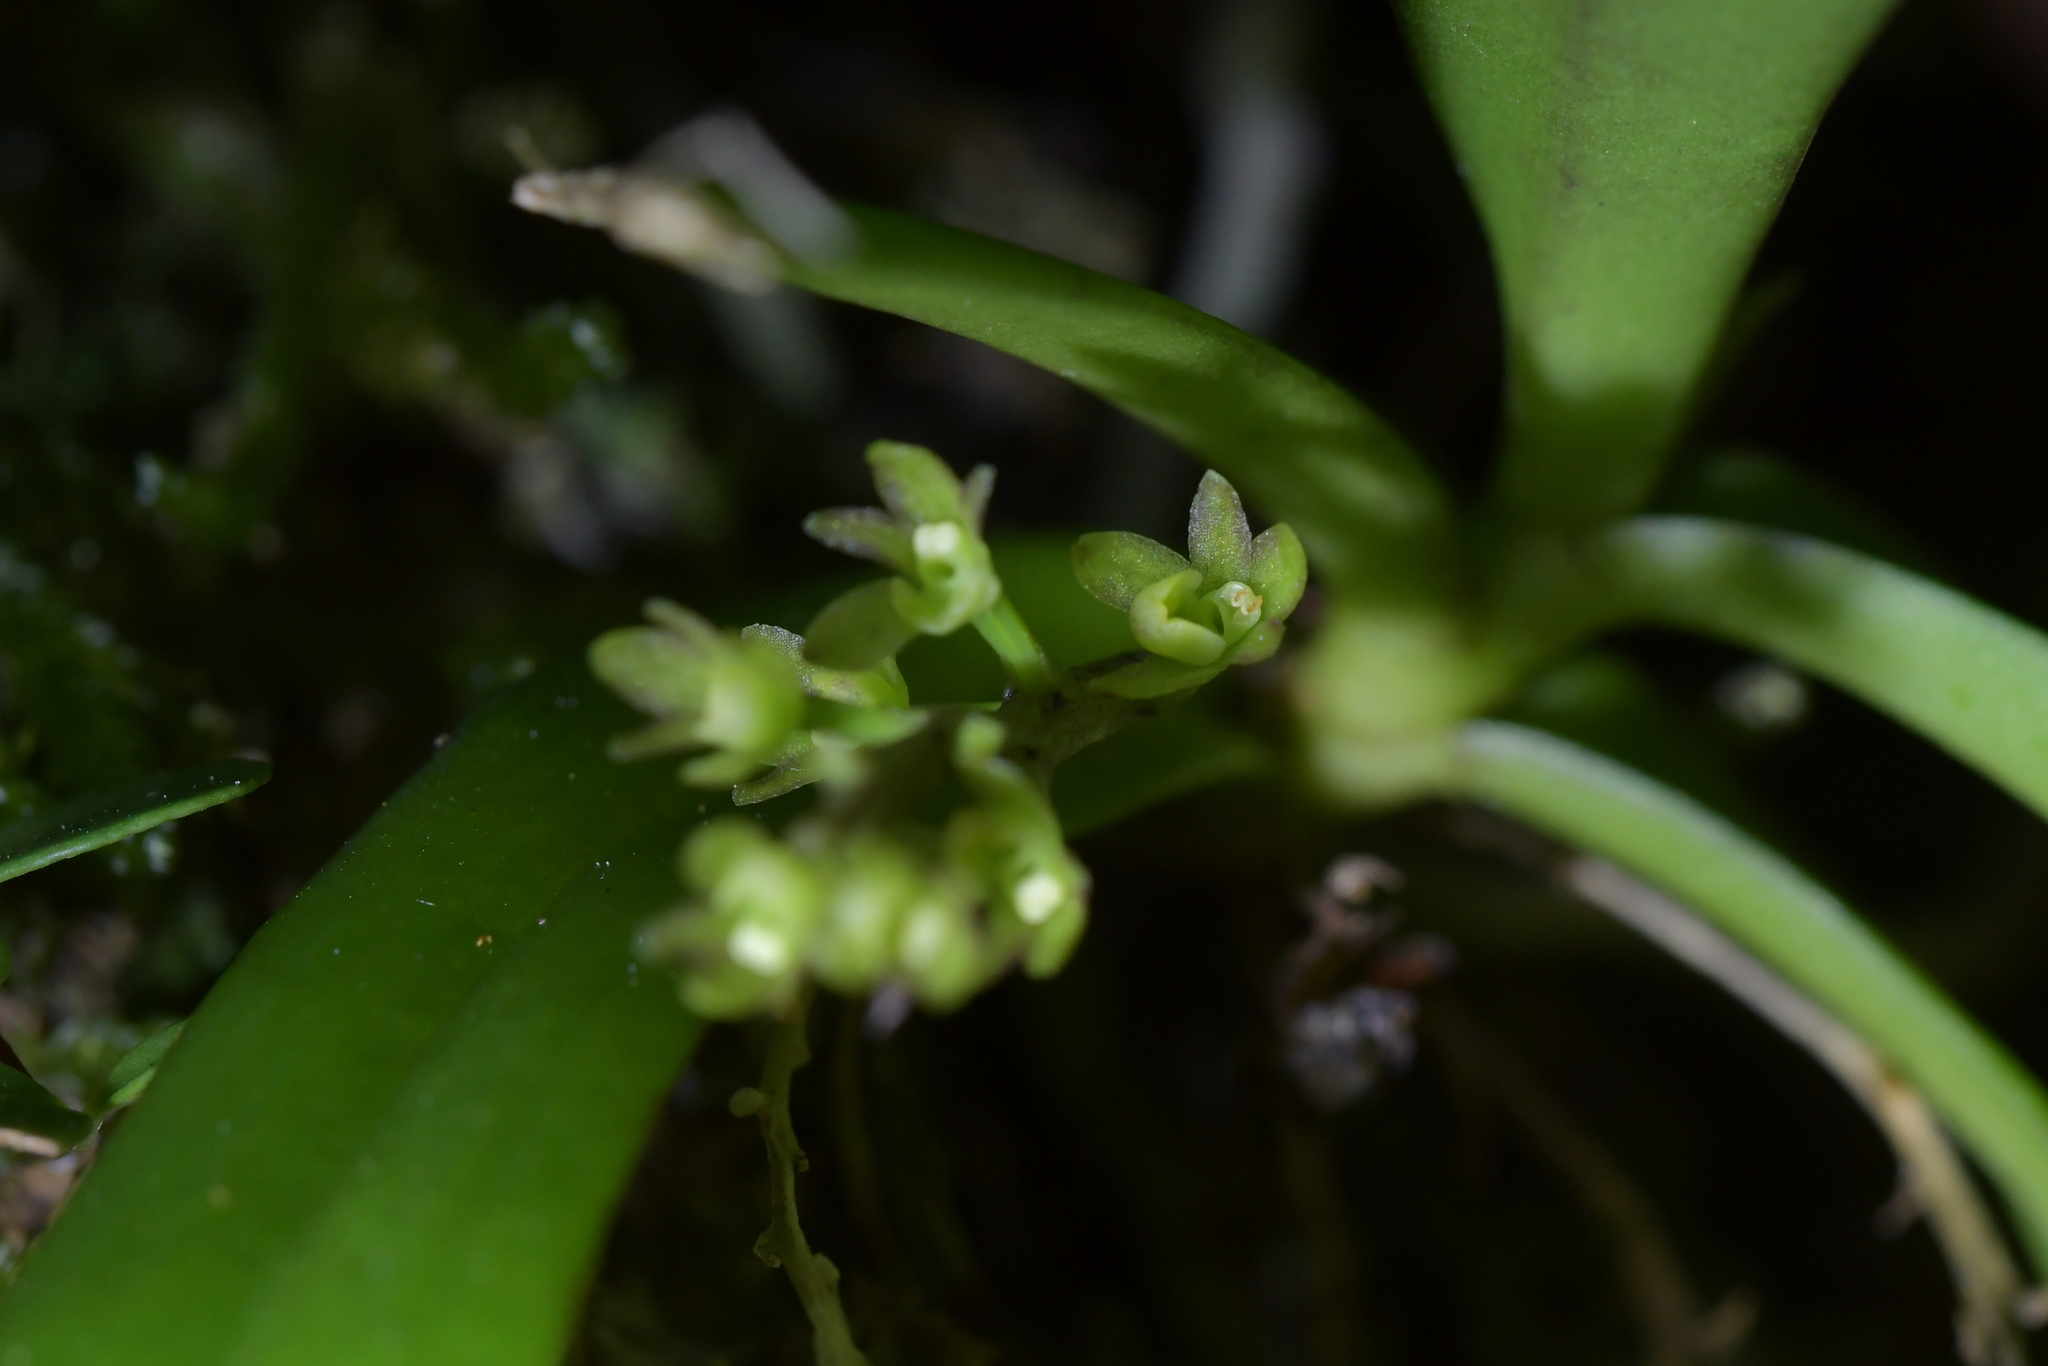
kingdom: Plantae
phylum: Tracheophyta
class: Liliopsida
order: Asparagales
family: Orchidaceae
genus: Drymoanthus
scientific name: Drymoanthus adversus
